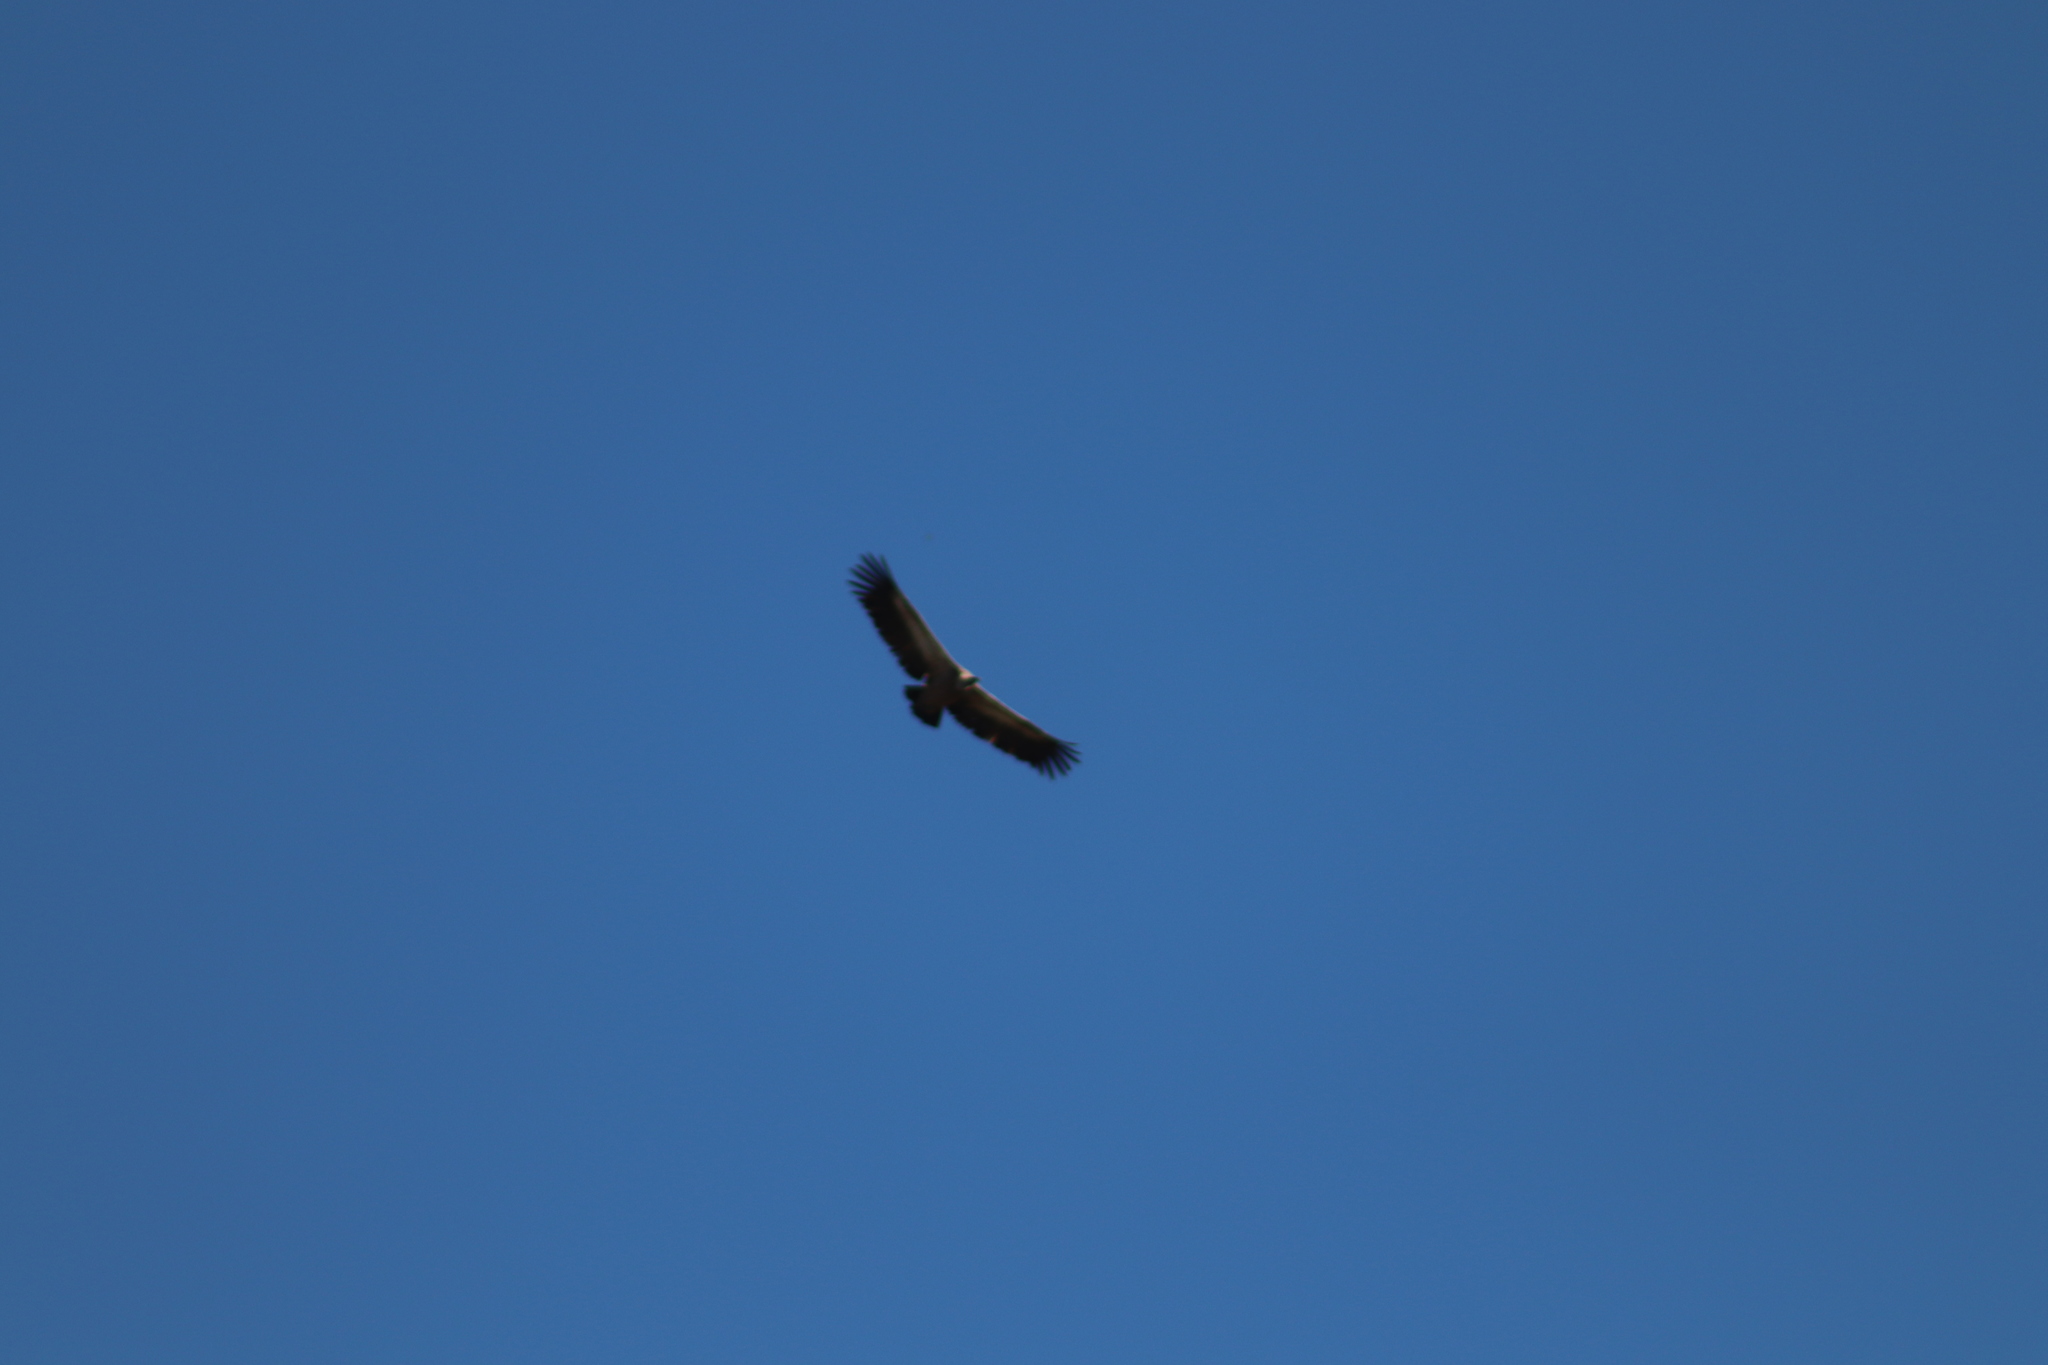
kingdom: Animalia
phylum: Chordata
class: Aves
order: Accipitriformes
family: Accipitridae
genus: Gyps
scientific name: Gyps fulvus
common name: Griffon vulture
